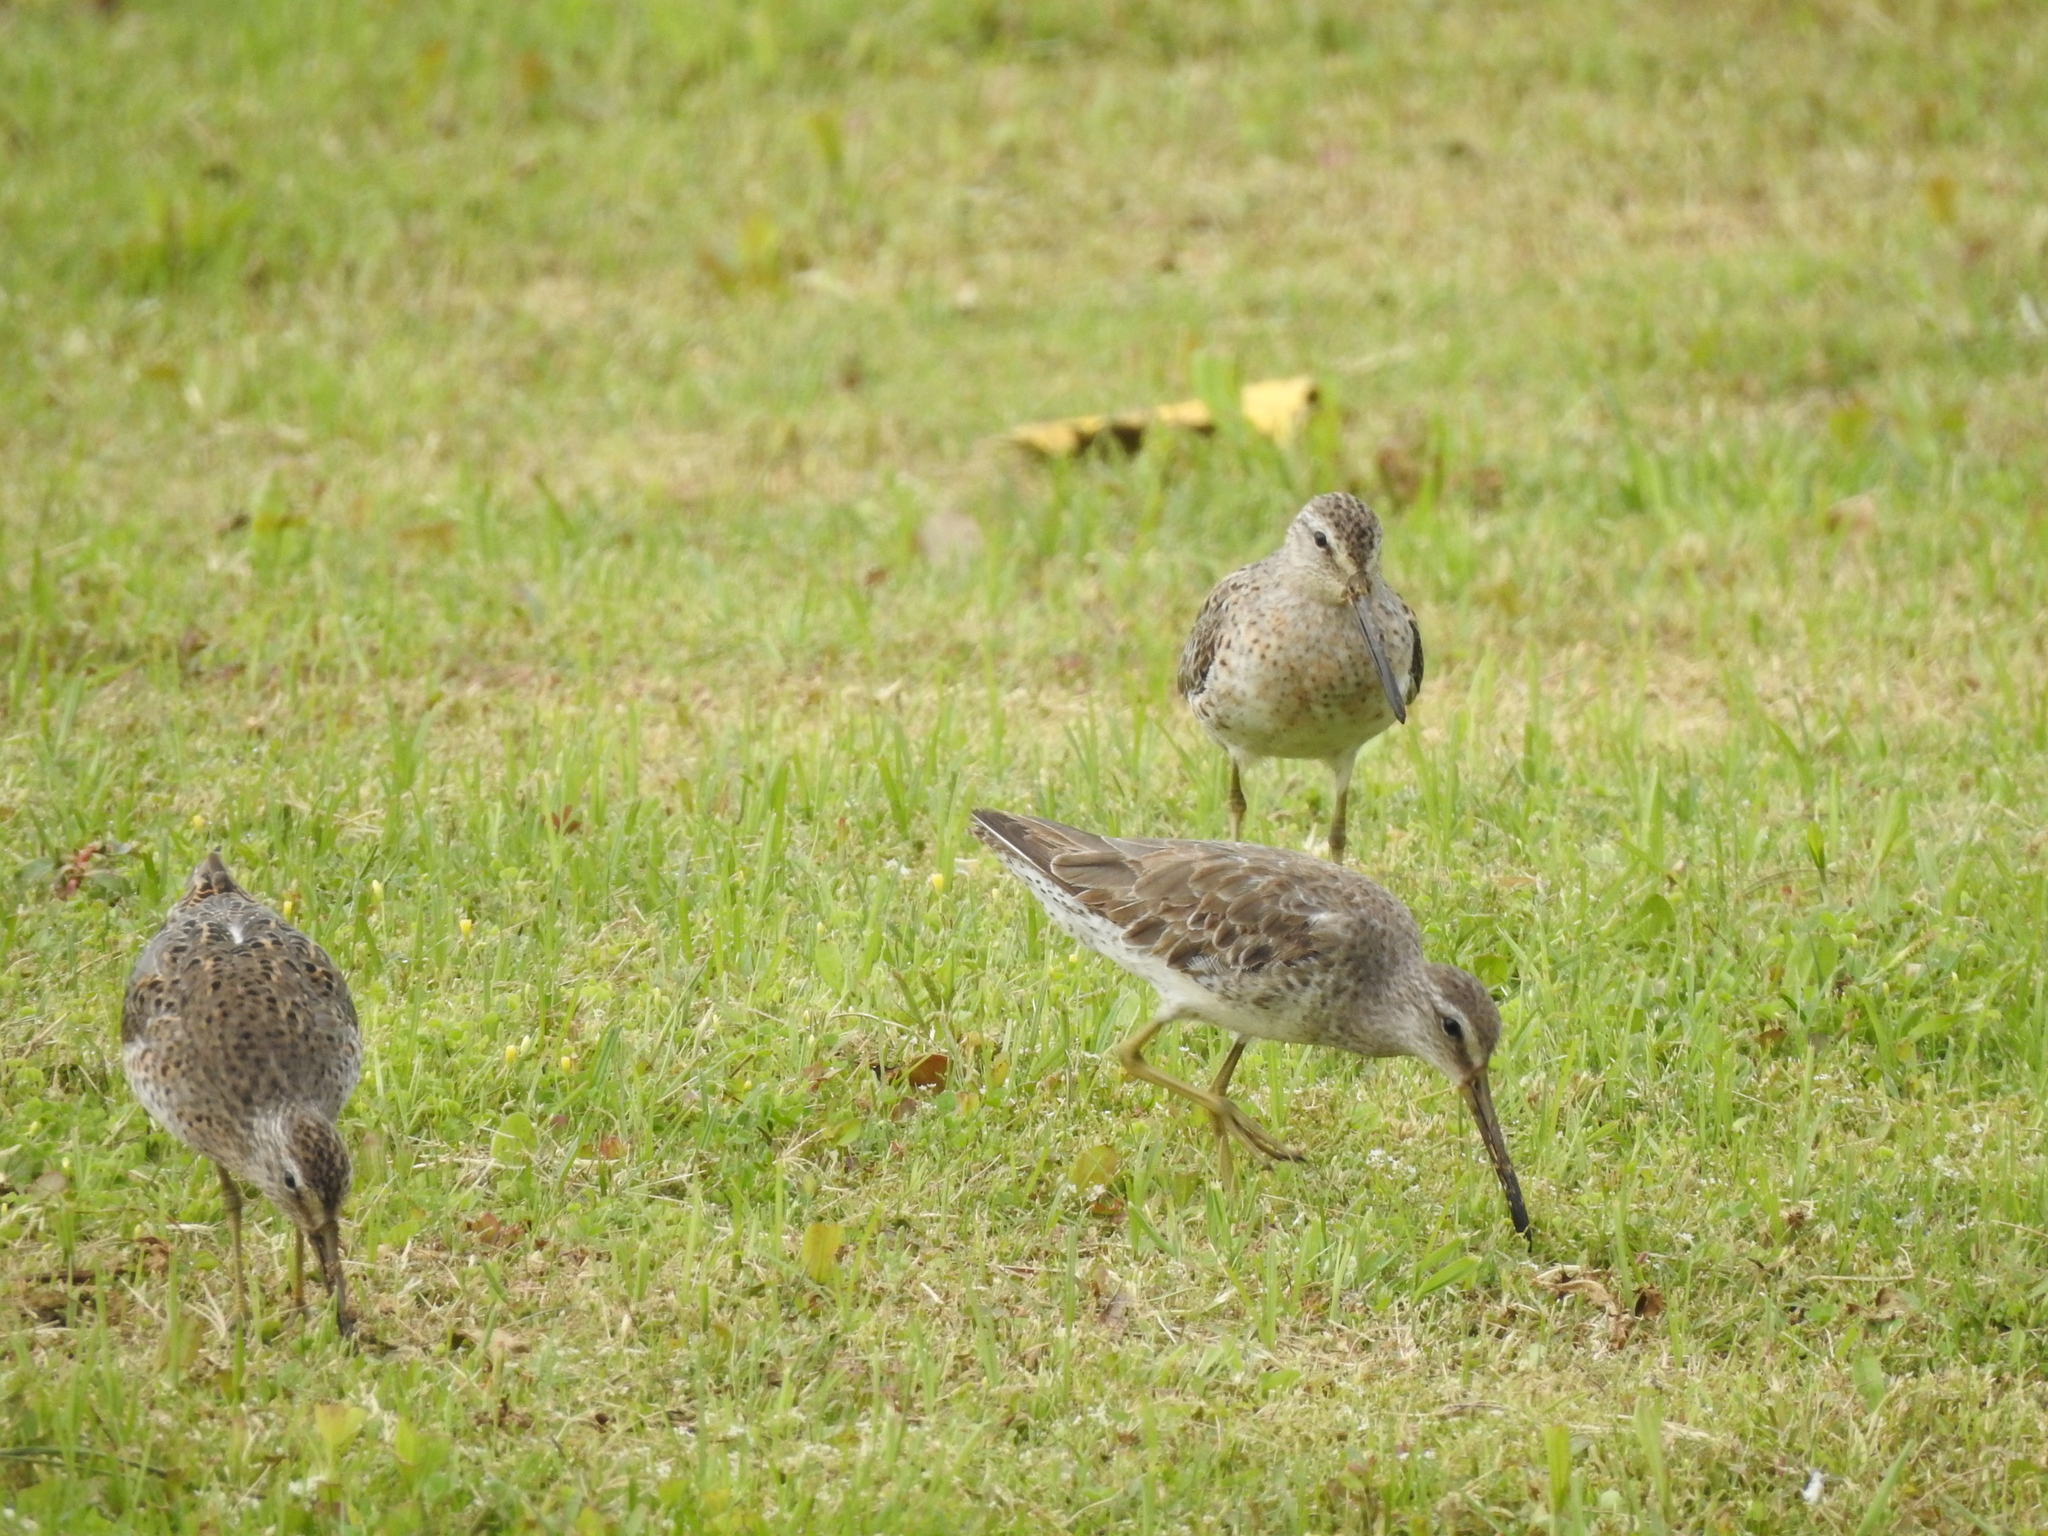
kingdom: Animalia
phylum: Chordata
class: Aves
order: Charadriiformes
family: Scolopacidae
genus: Limnodromus
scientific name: Limnodromus griseus
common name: Short-billed dowitcher
